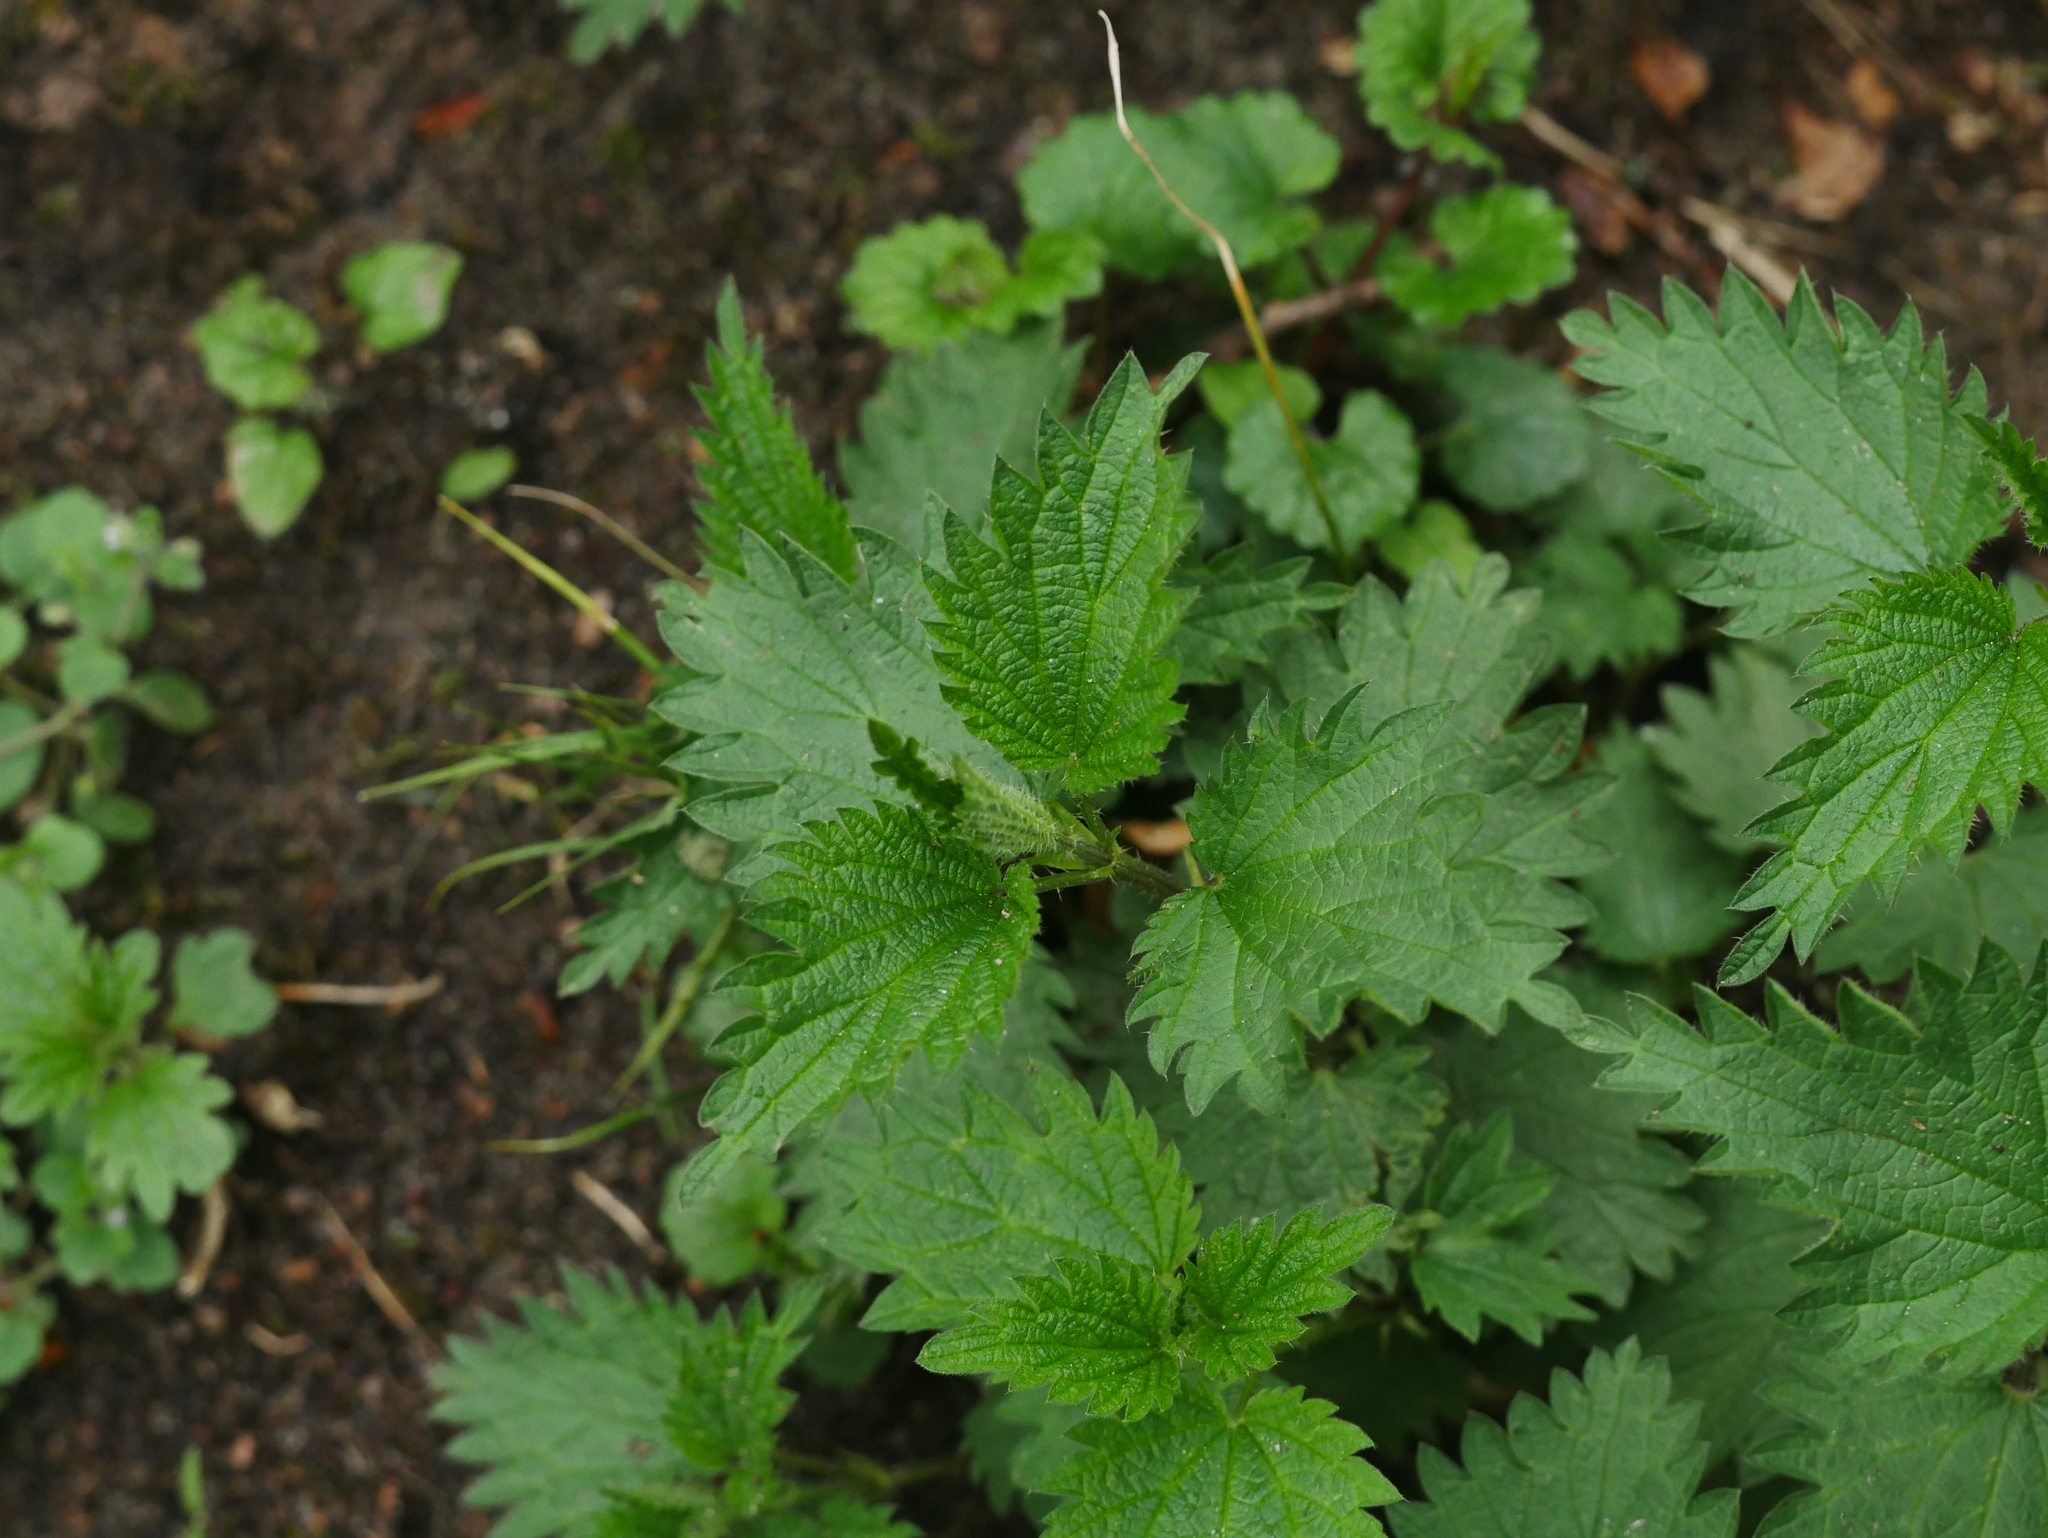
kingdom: Plantae
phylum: Tracheophyta
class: Magnoliopsida
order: Rosales
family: Urticaceae
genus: Urtica
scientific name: Urtica dioica
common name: Common nettle
